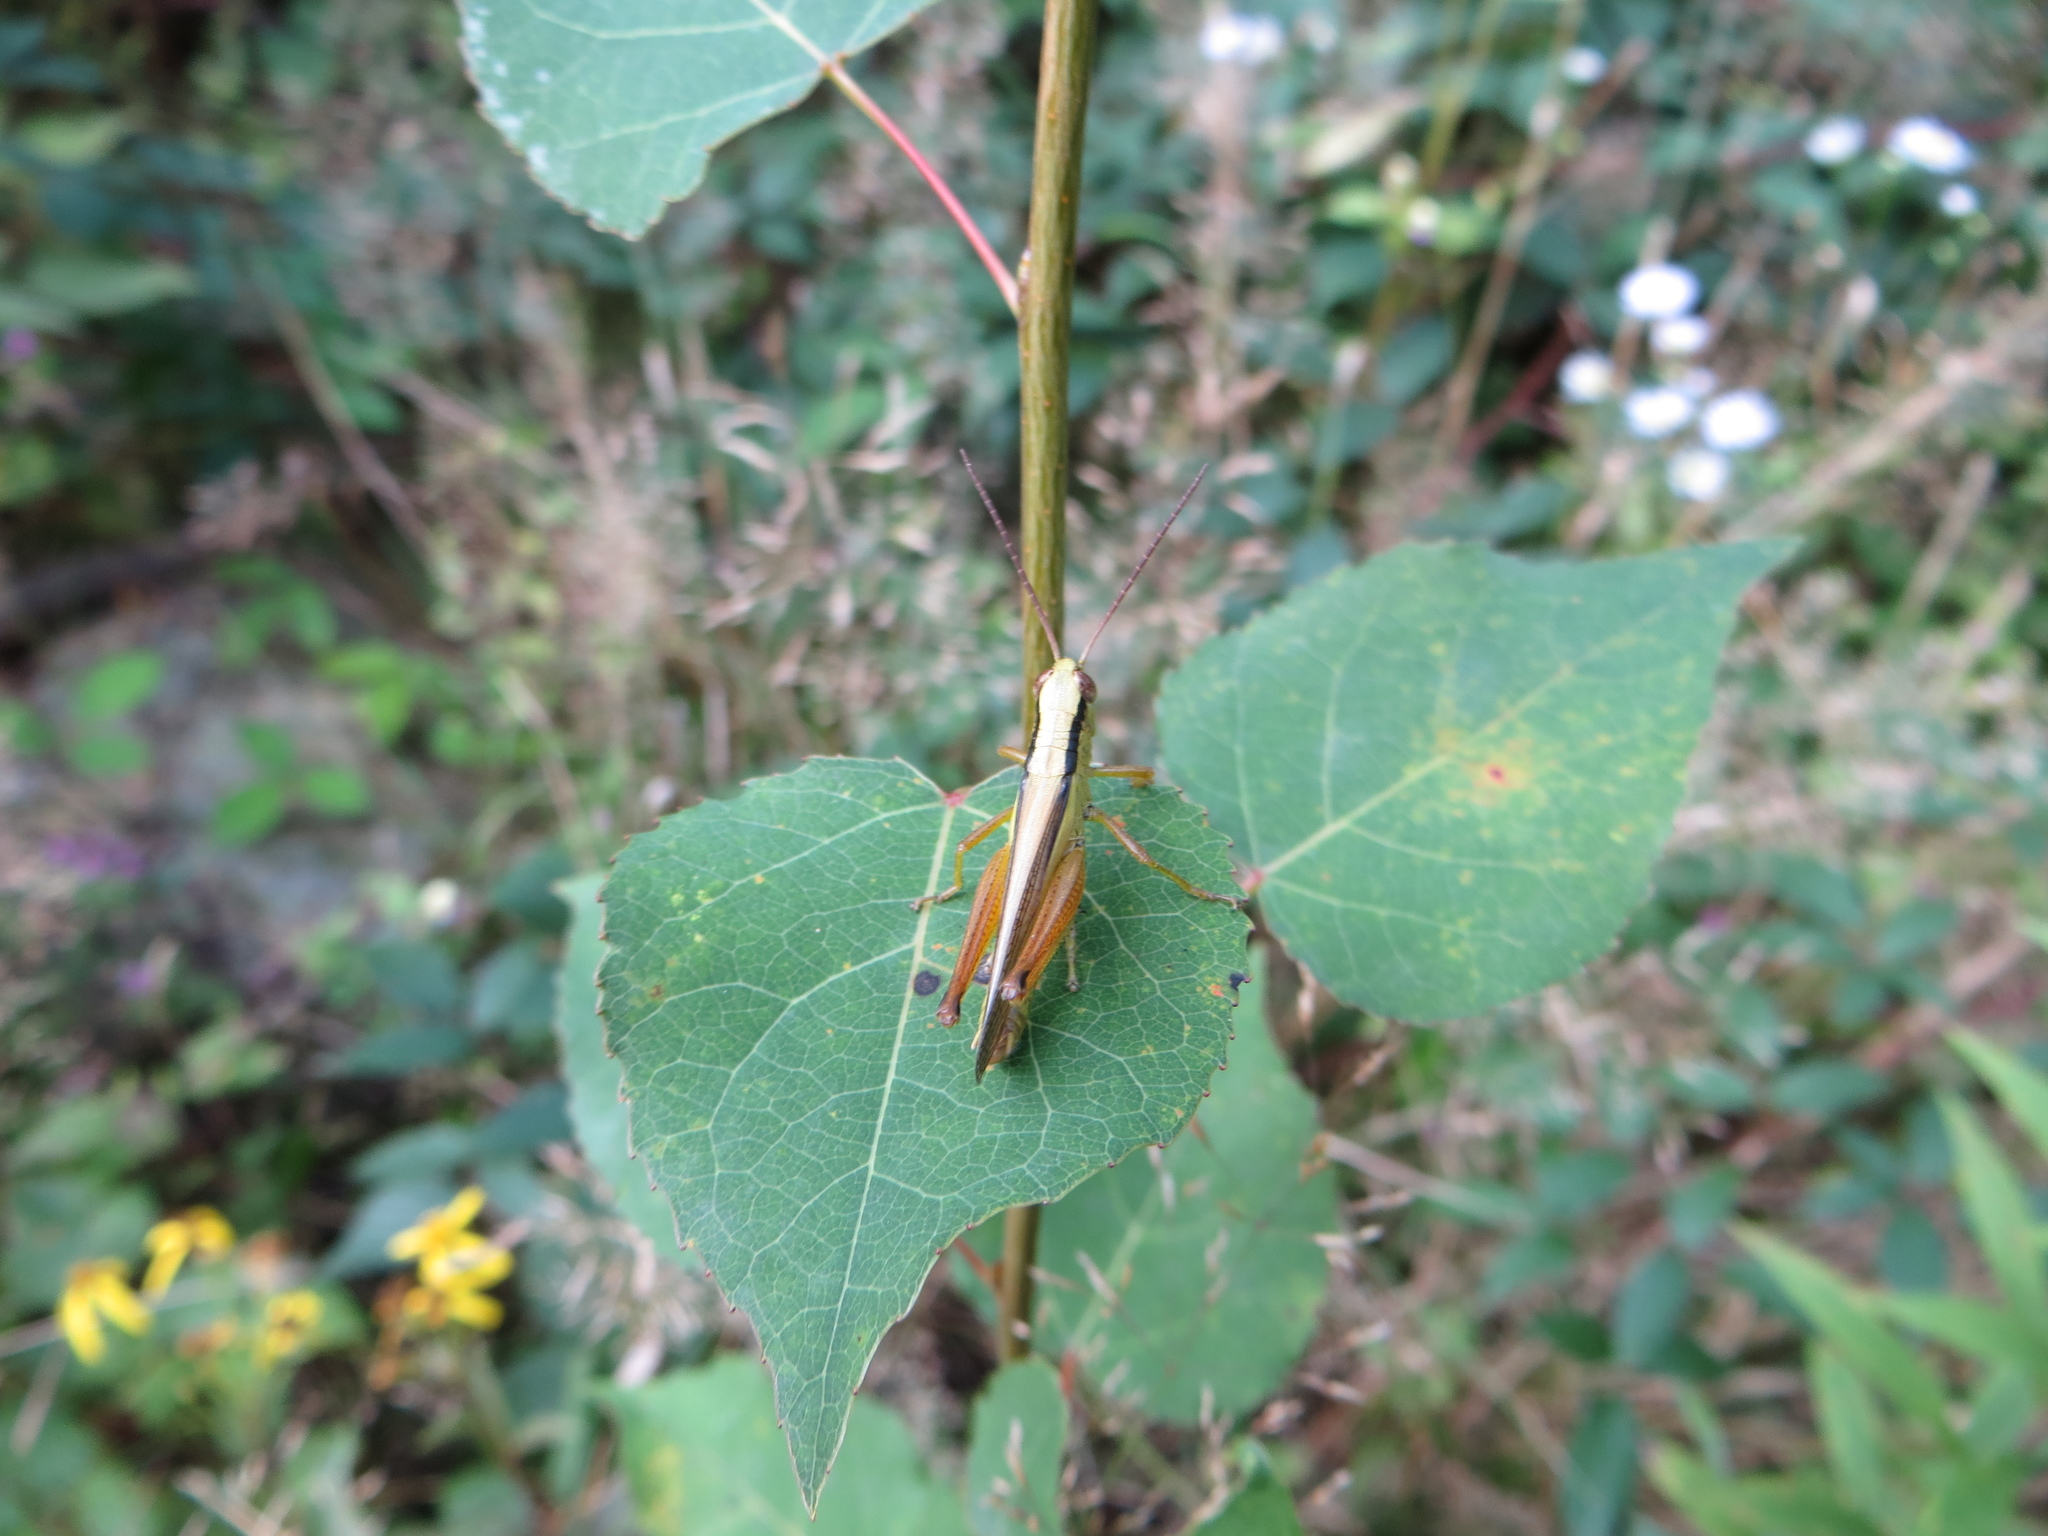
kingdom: Animalia
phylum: Arthropoda
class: Insecta
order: Orthoptera
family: Acrididae
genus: Mecostethus
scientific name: Mecostethus parapleurus
